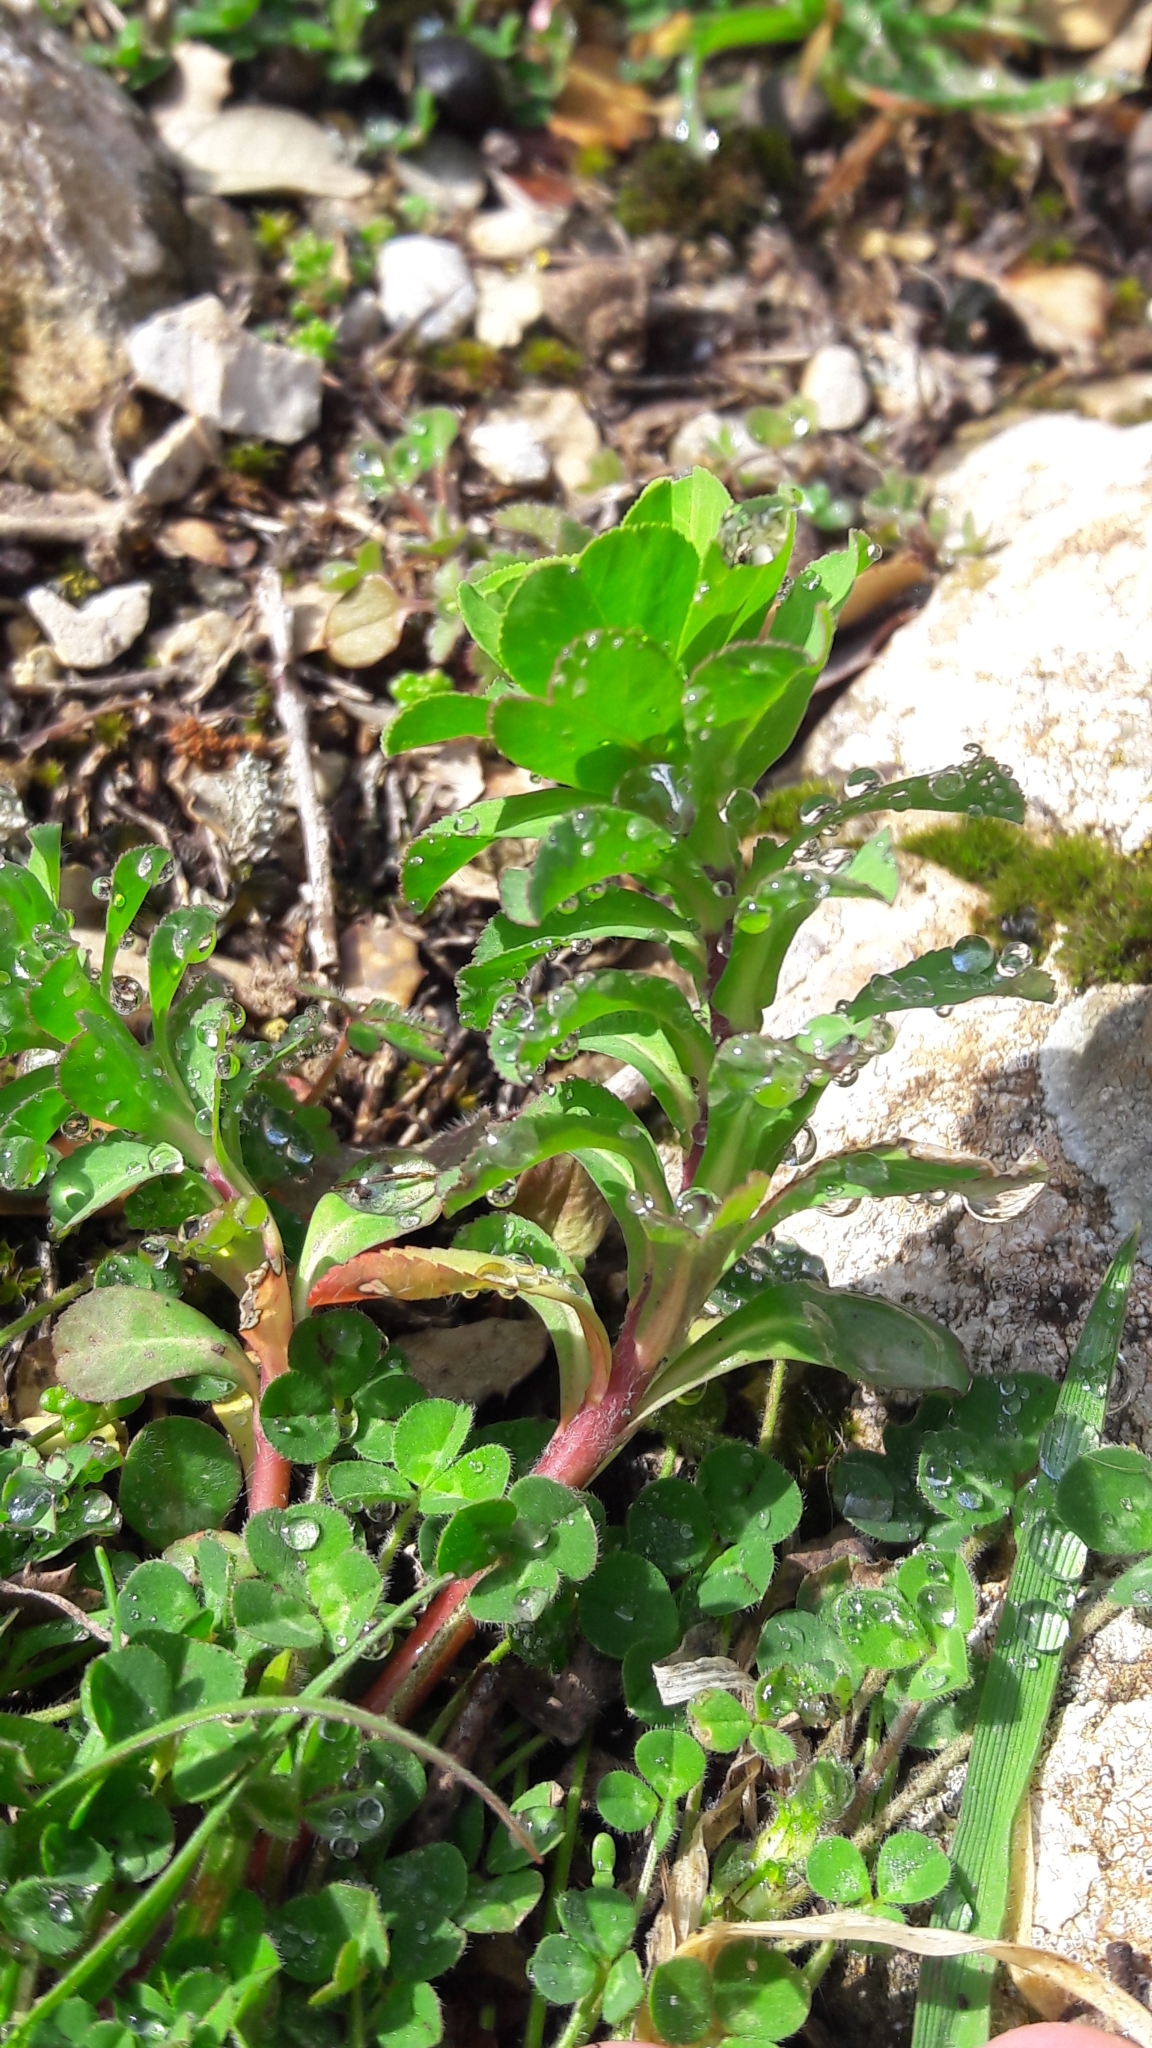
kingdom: Plantae
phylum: Tracheophyta
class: Magnoliopsida
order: Malpighiales
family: Euphorbiaceae
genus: Euphorbia
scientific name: Euphorbia helioscopia
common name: Sun spurge
